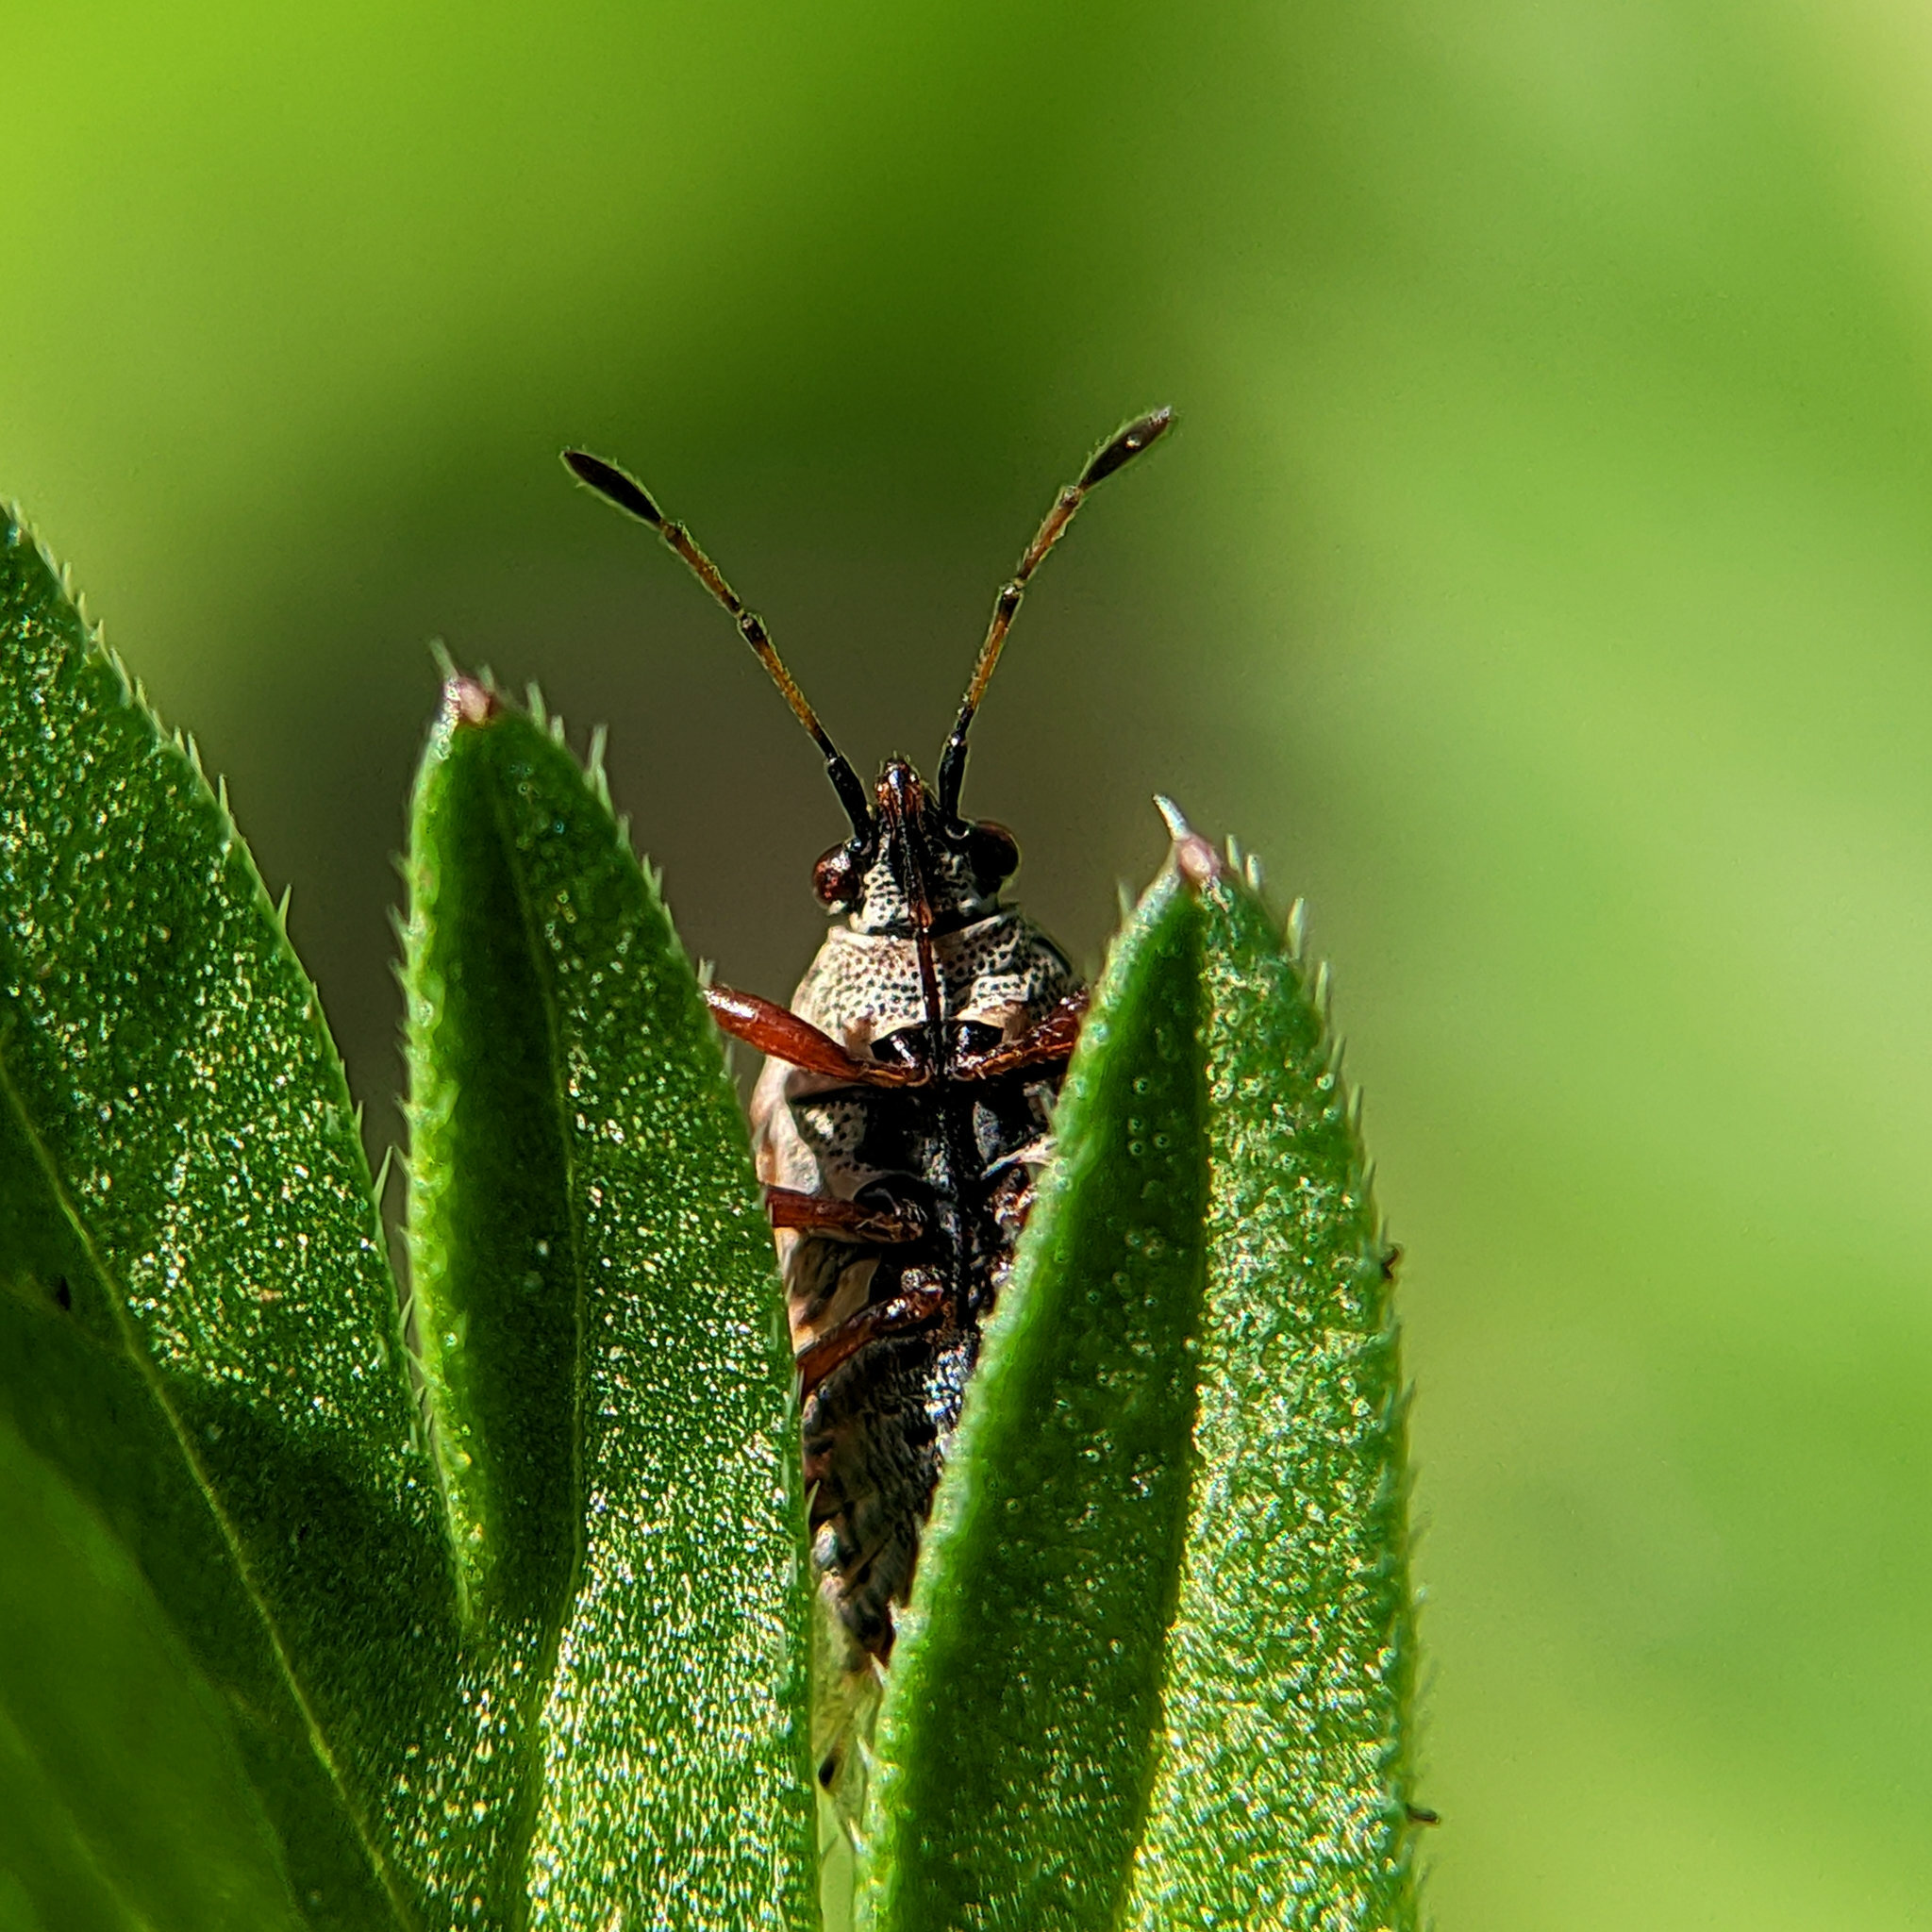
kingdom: Animalia
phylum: Arthropoda
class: Insecta
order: Hemiptera
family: Lygaeidae
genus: Kleidocerys
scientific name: Kleidocerys resedae
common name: Birch catkin bug
